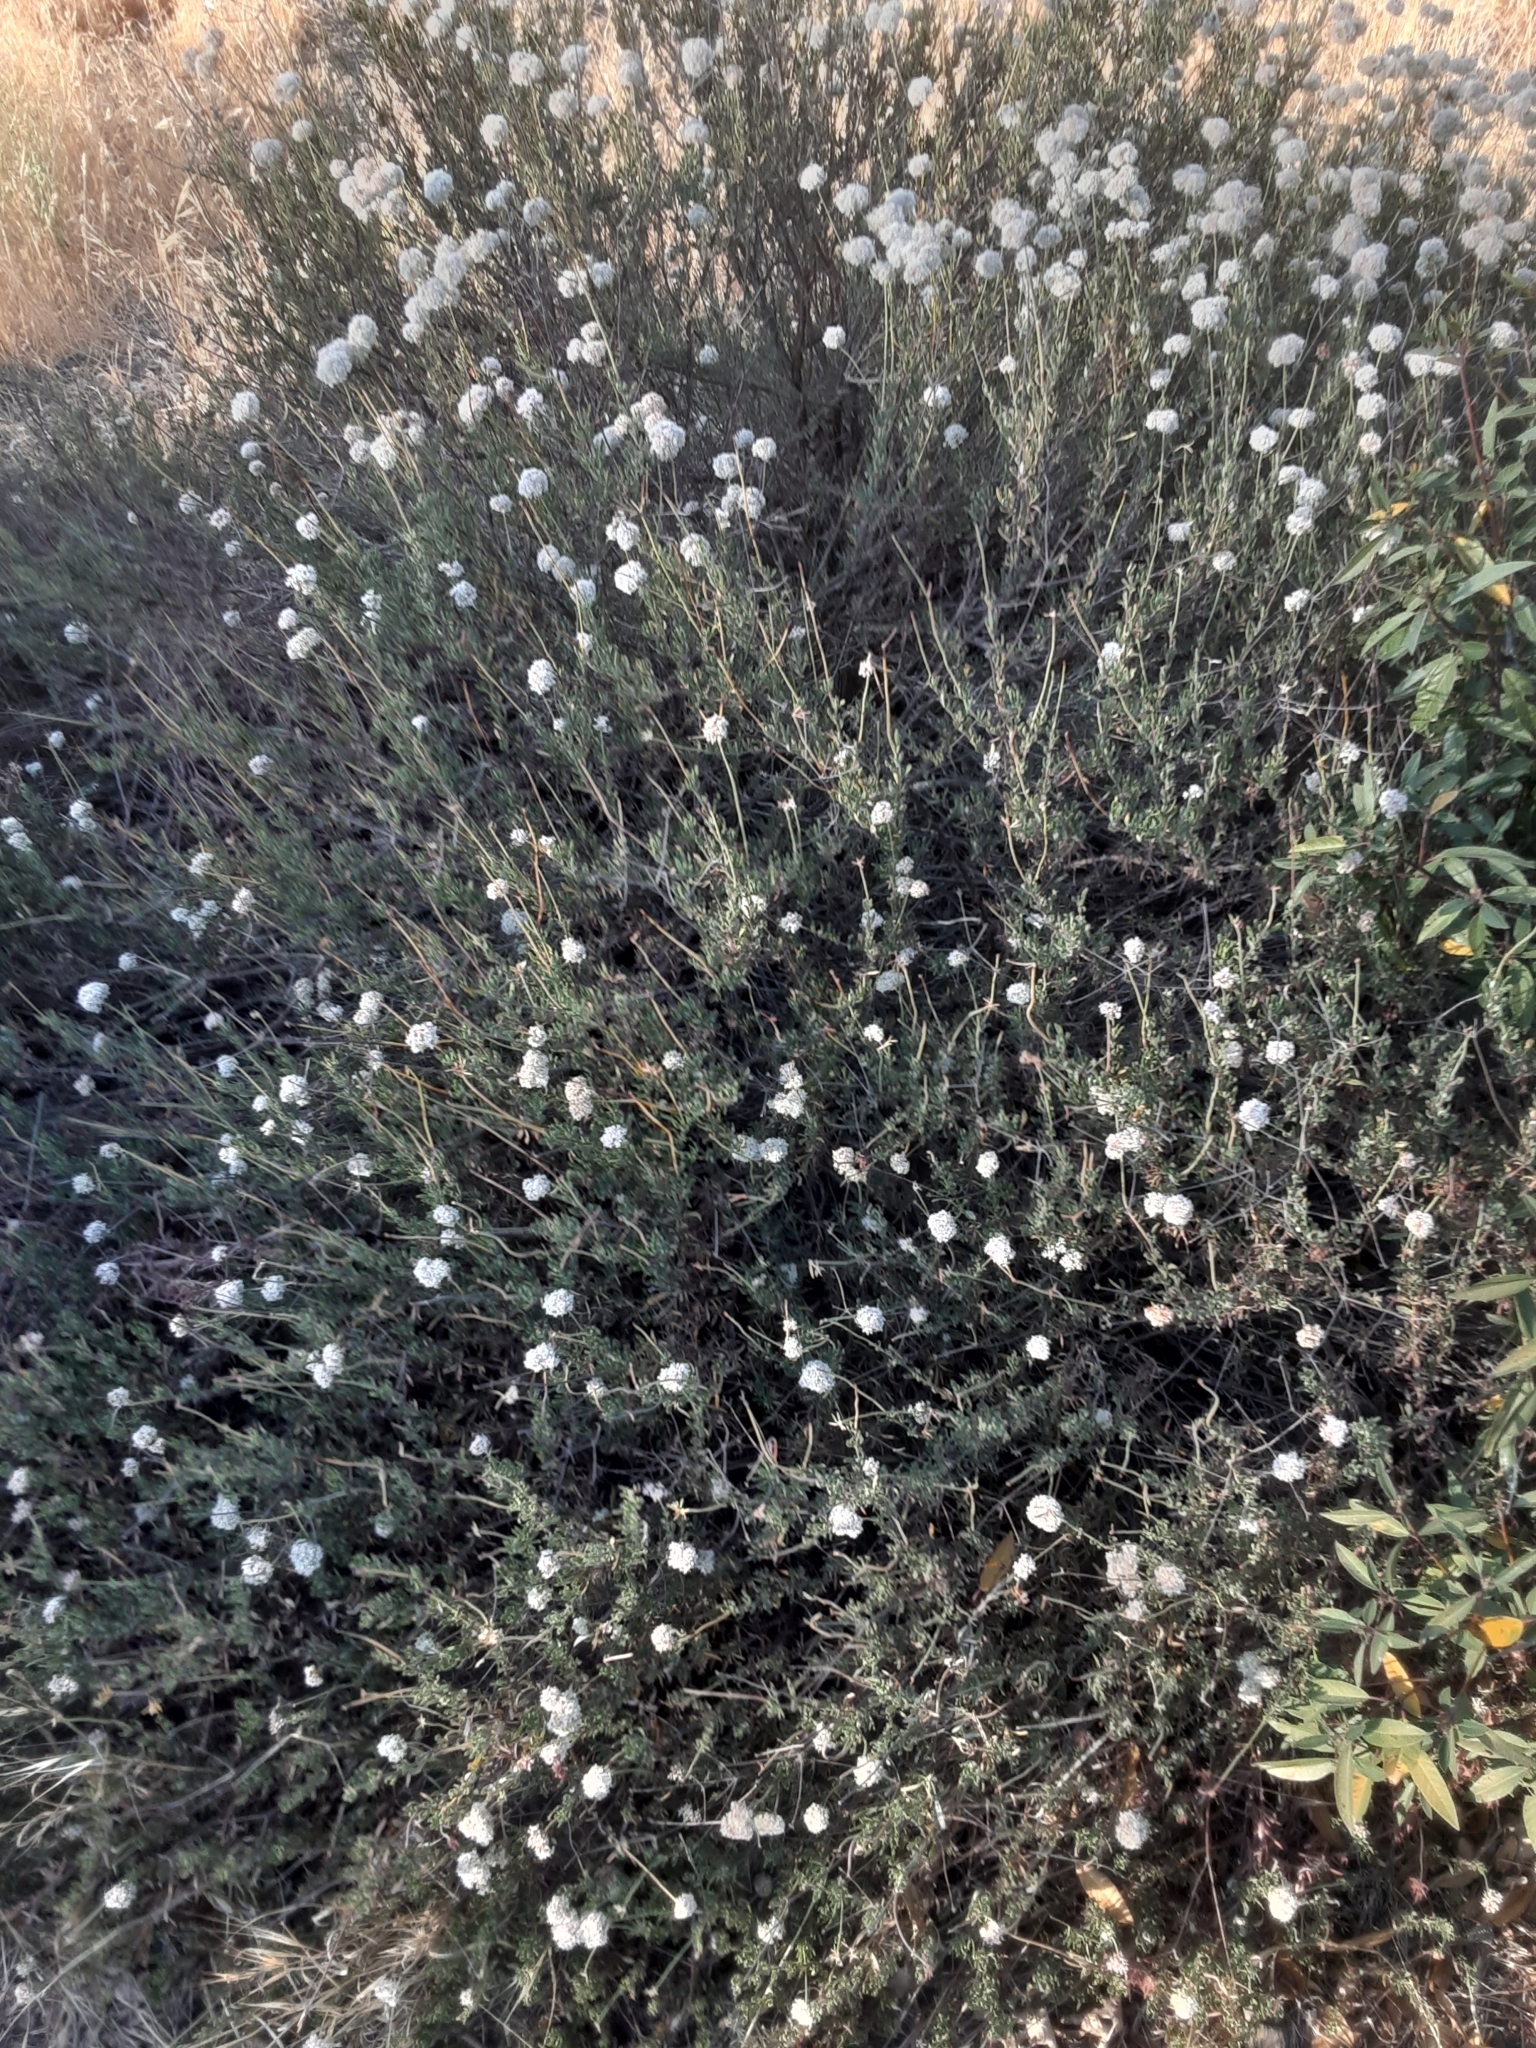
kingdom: Plantae
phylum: Tracheophyta
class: Magnoliopsida
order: Caryophyllales
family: Polygonaceae
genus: Eriogonum
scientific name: Eriogonum fasciculatum
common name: California wild buckwheat
